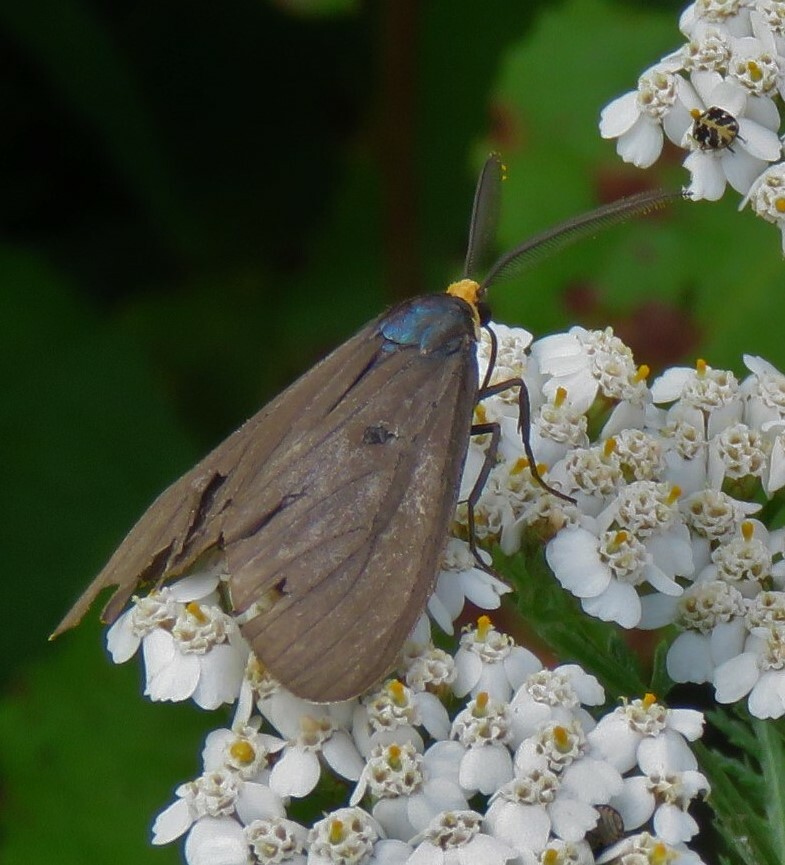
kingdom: Animalia
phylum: Arthropoda
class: Insecta
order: Lepidoptera
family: Erebidae
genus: Ctenucha
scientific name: Ctenucha virginica
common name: Virginia ctenucha moth
